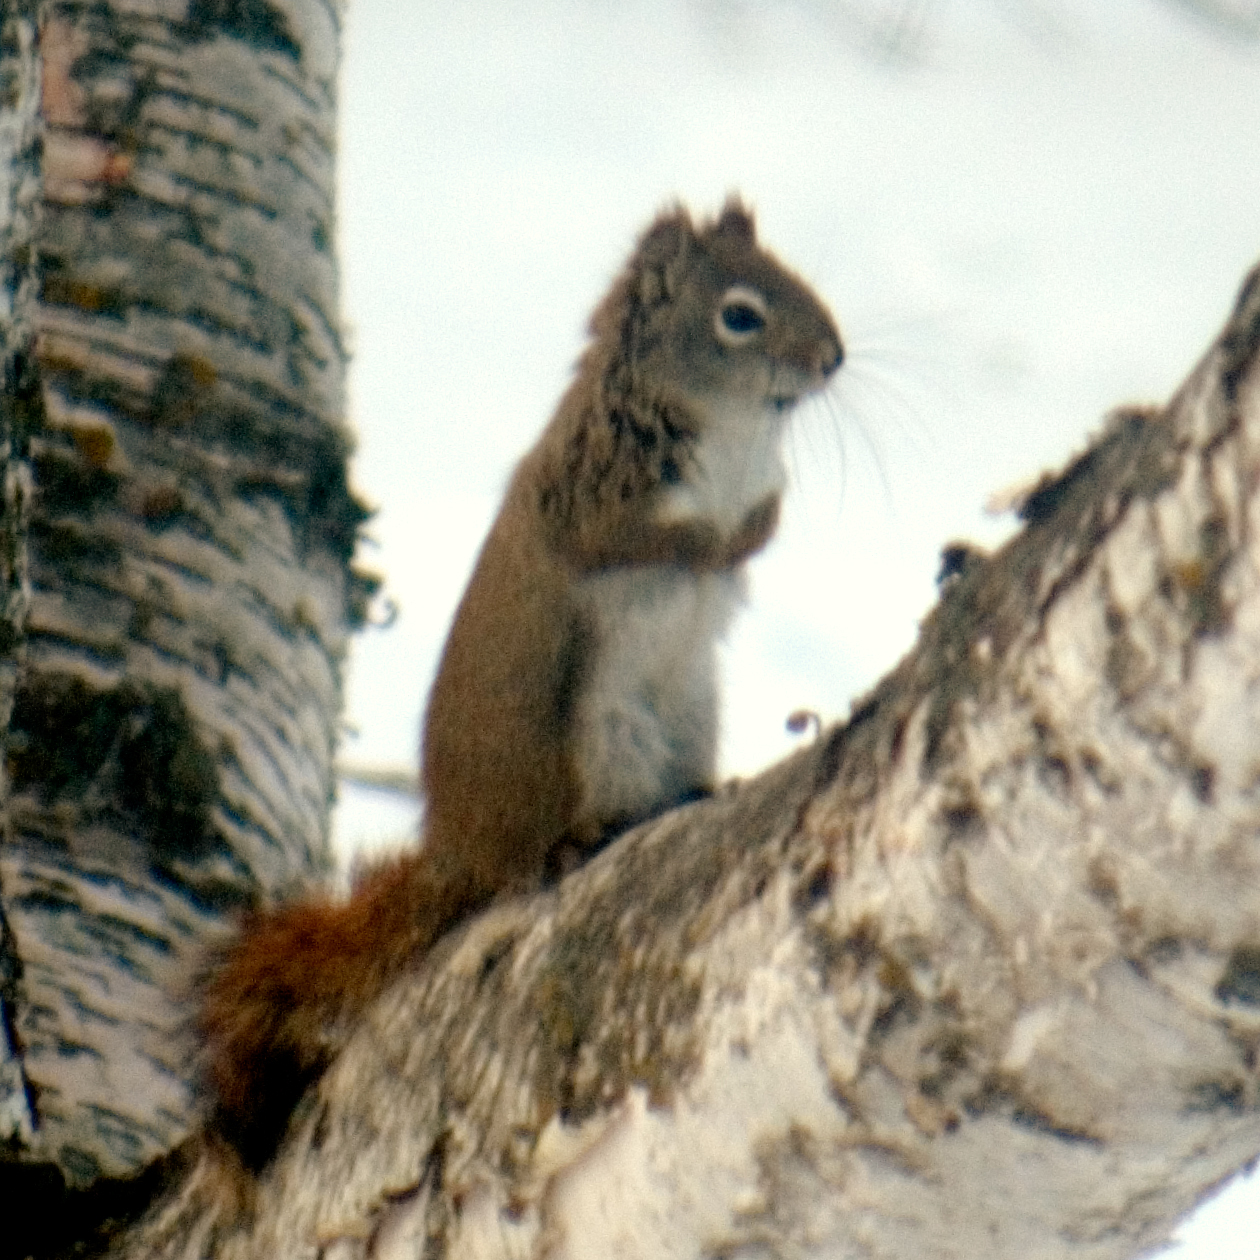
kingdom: Animalia
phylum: Chordata
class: Mammalia
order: Rodentia
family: Sciuridae
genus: Tamiasciurus
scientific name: Tamiasciurus hudsonicus
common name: Red squirrel
